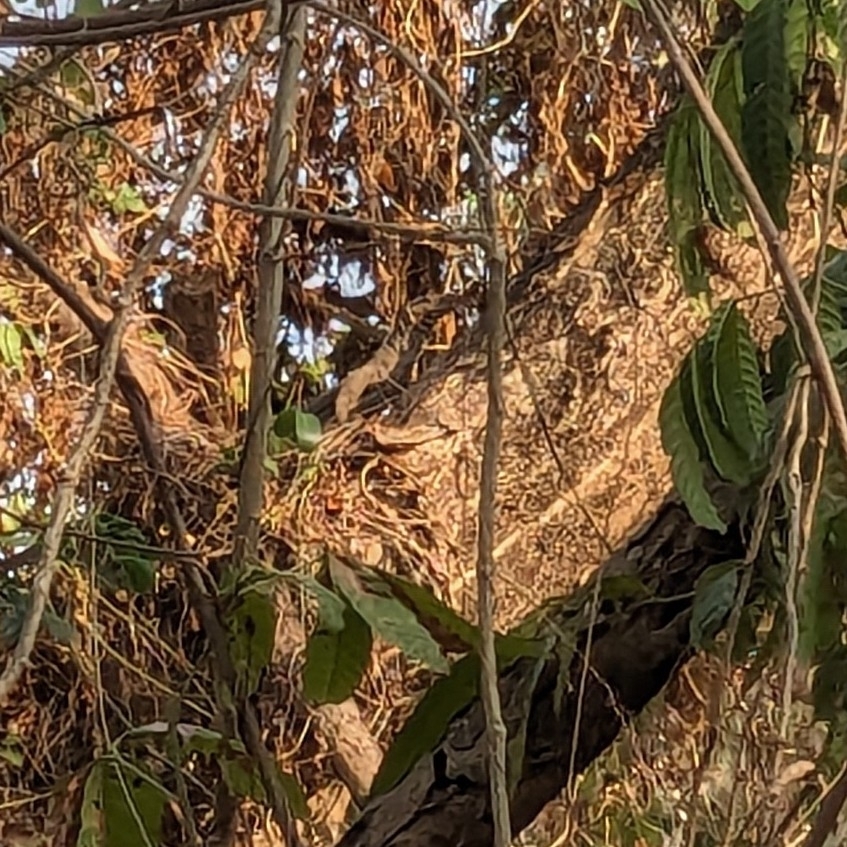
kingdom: Animalia
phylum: Chordata
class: Squamata
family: Varanidae
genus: Varanus
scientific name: Varanus bengalensis
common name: Bengal monitor
